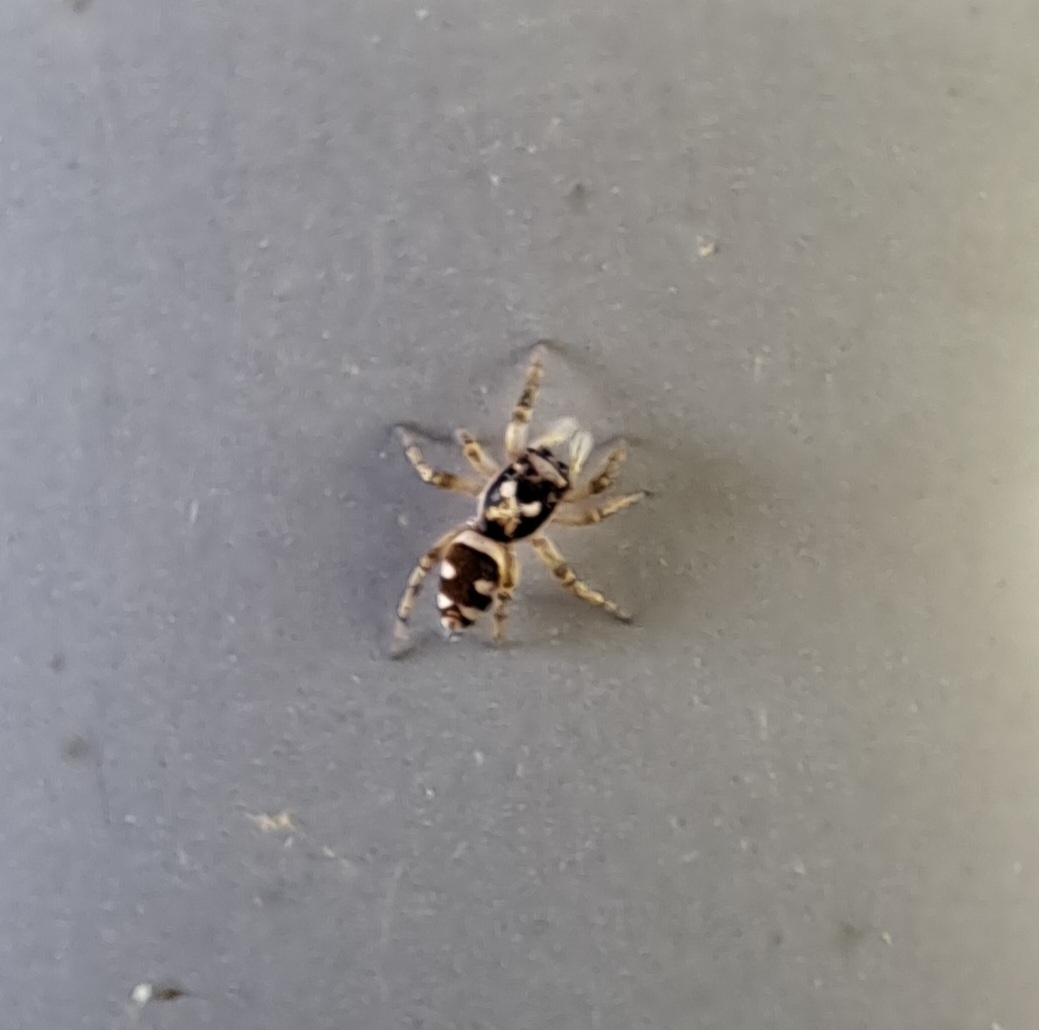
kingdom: Animalia
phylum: Arthropoda
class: Arachnida
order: Araneae
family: Salticidae
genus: Salticus
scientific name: Salticus scenicus
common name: Zebra jumper
